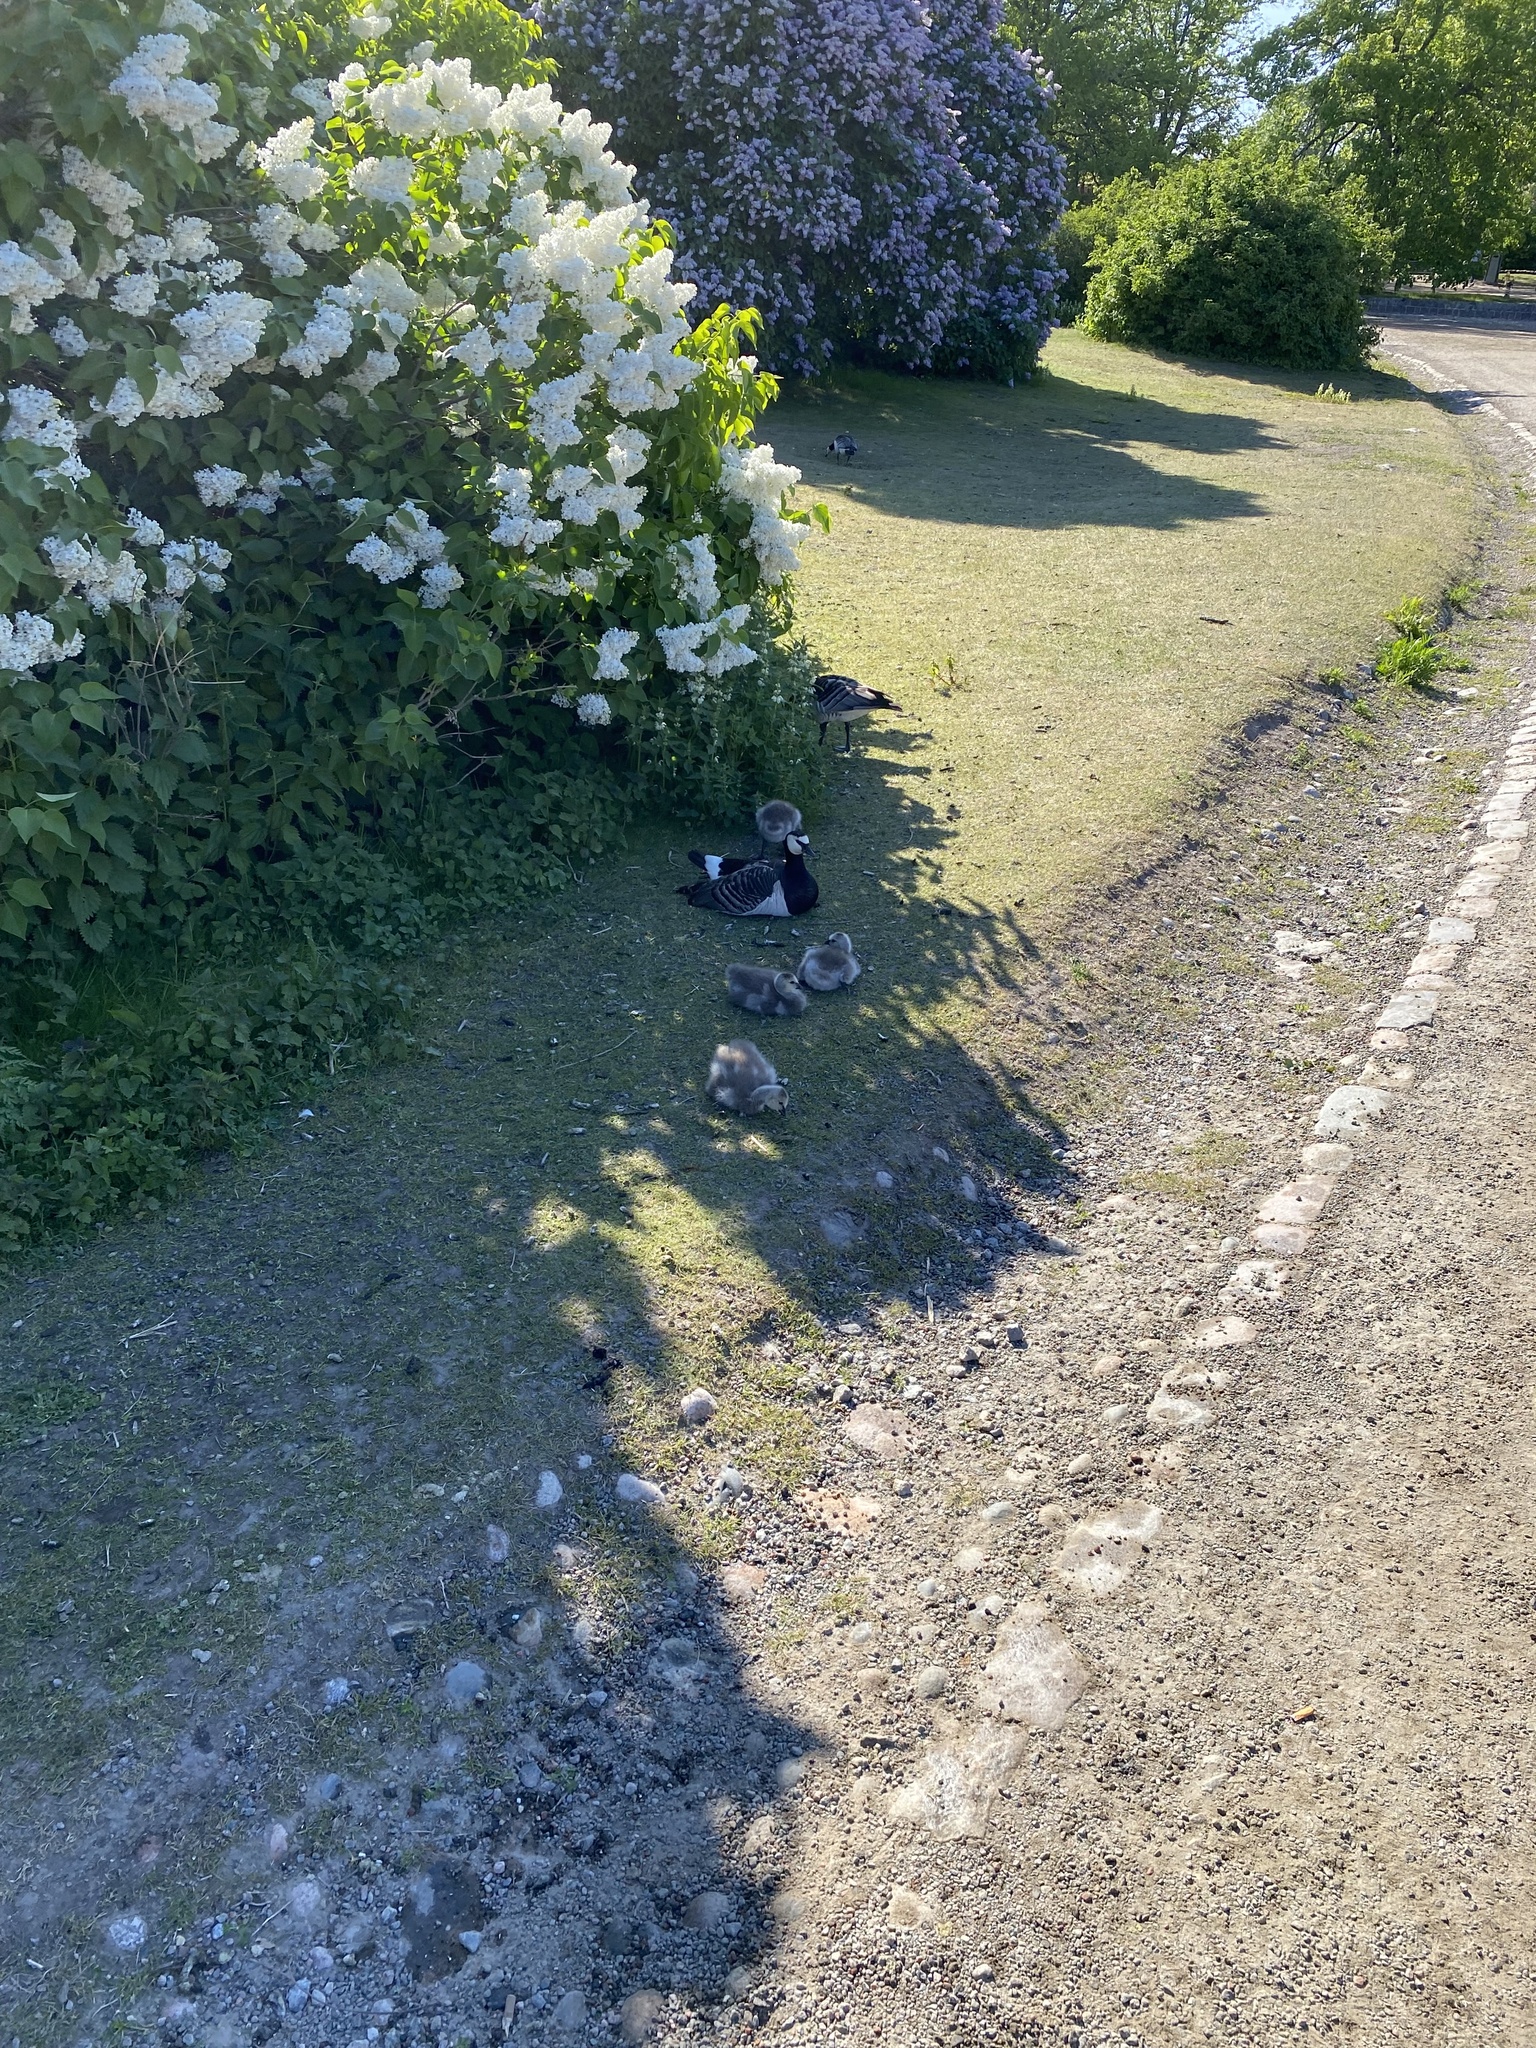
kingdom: Animalia
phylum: Chordata
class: Aves
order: Anseriformes
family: Anatidae
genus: Branta
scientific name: Branta leucopsis
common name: Barnacle goose
